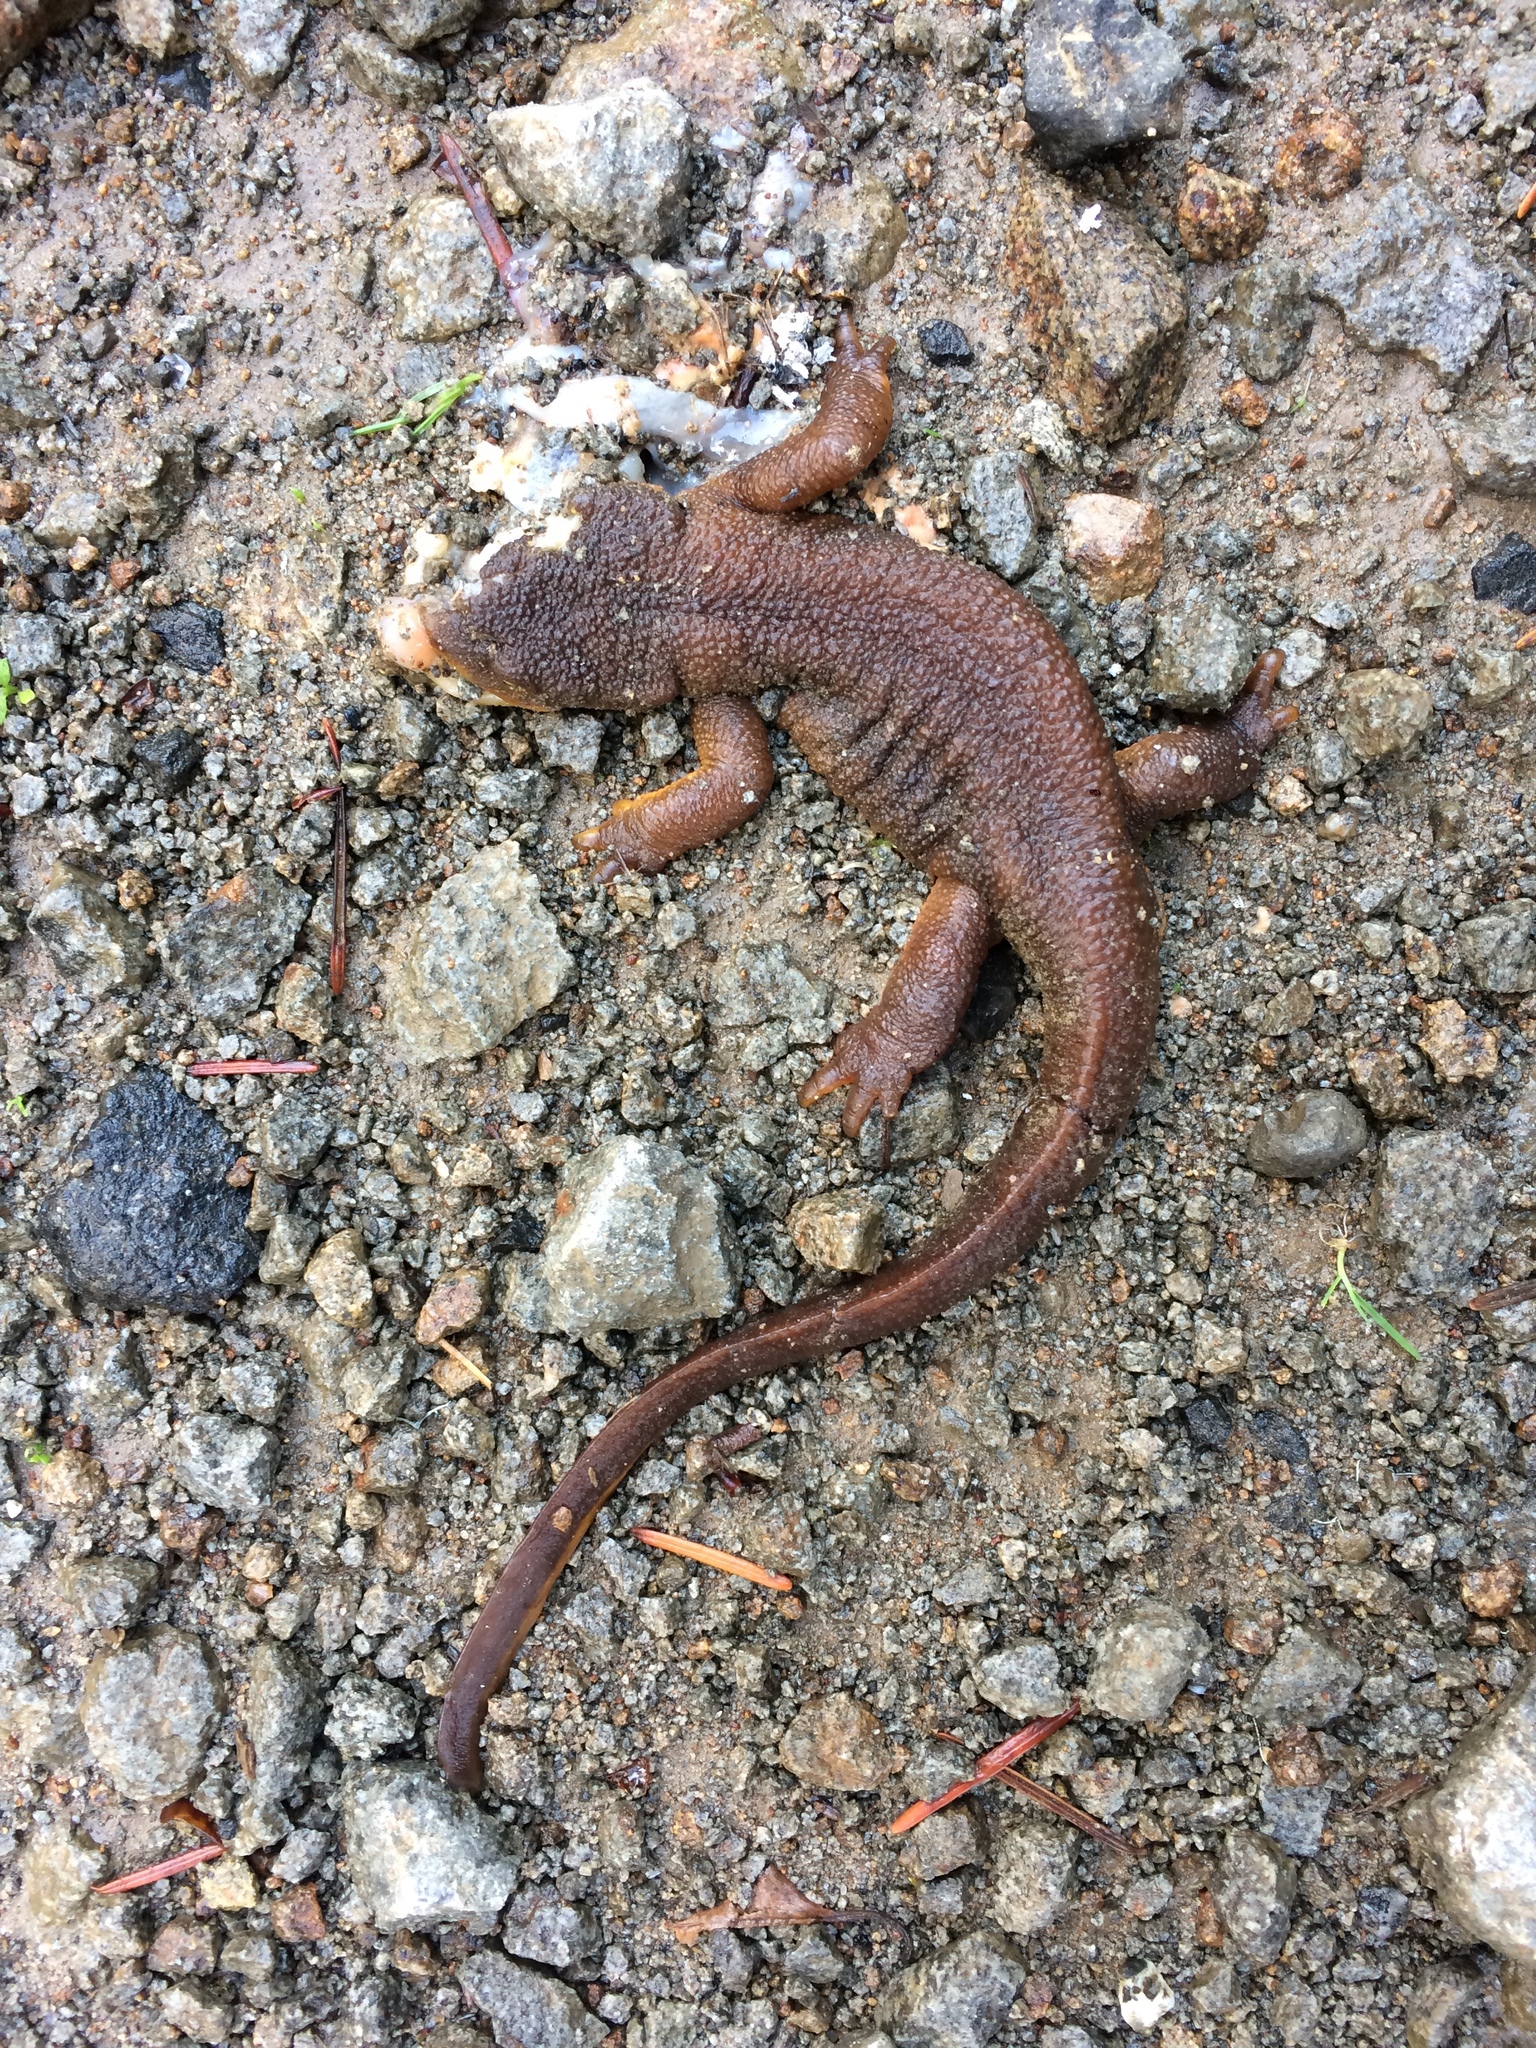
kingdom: Animalia
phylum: Chordata
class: Amphibia
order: Caudata
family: Salamandridae
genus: Taricha
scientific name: Taricha granulosa
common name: Roughskin newt
